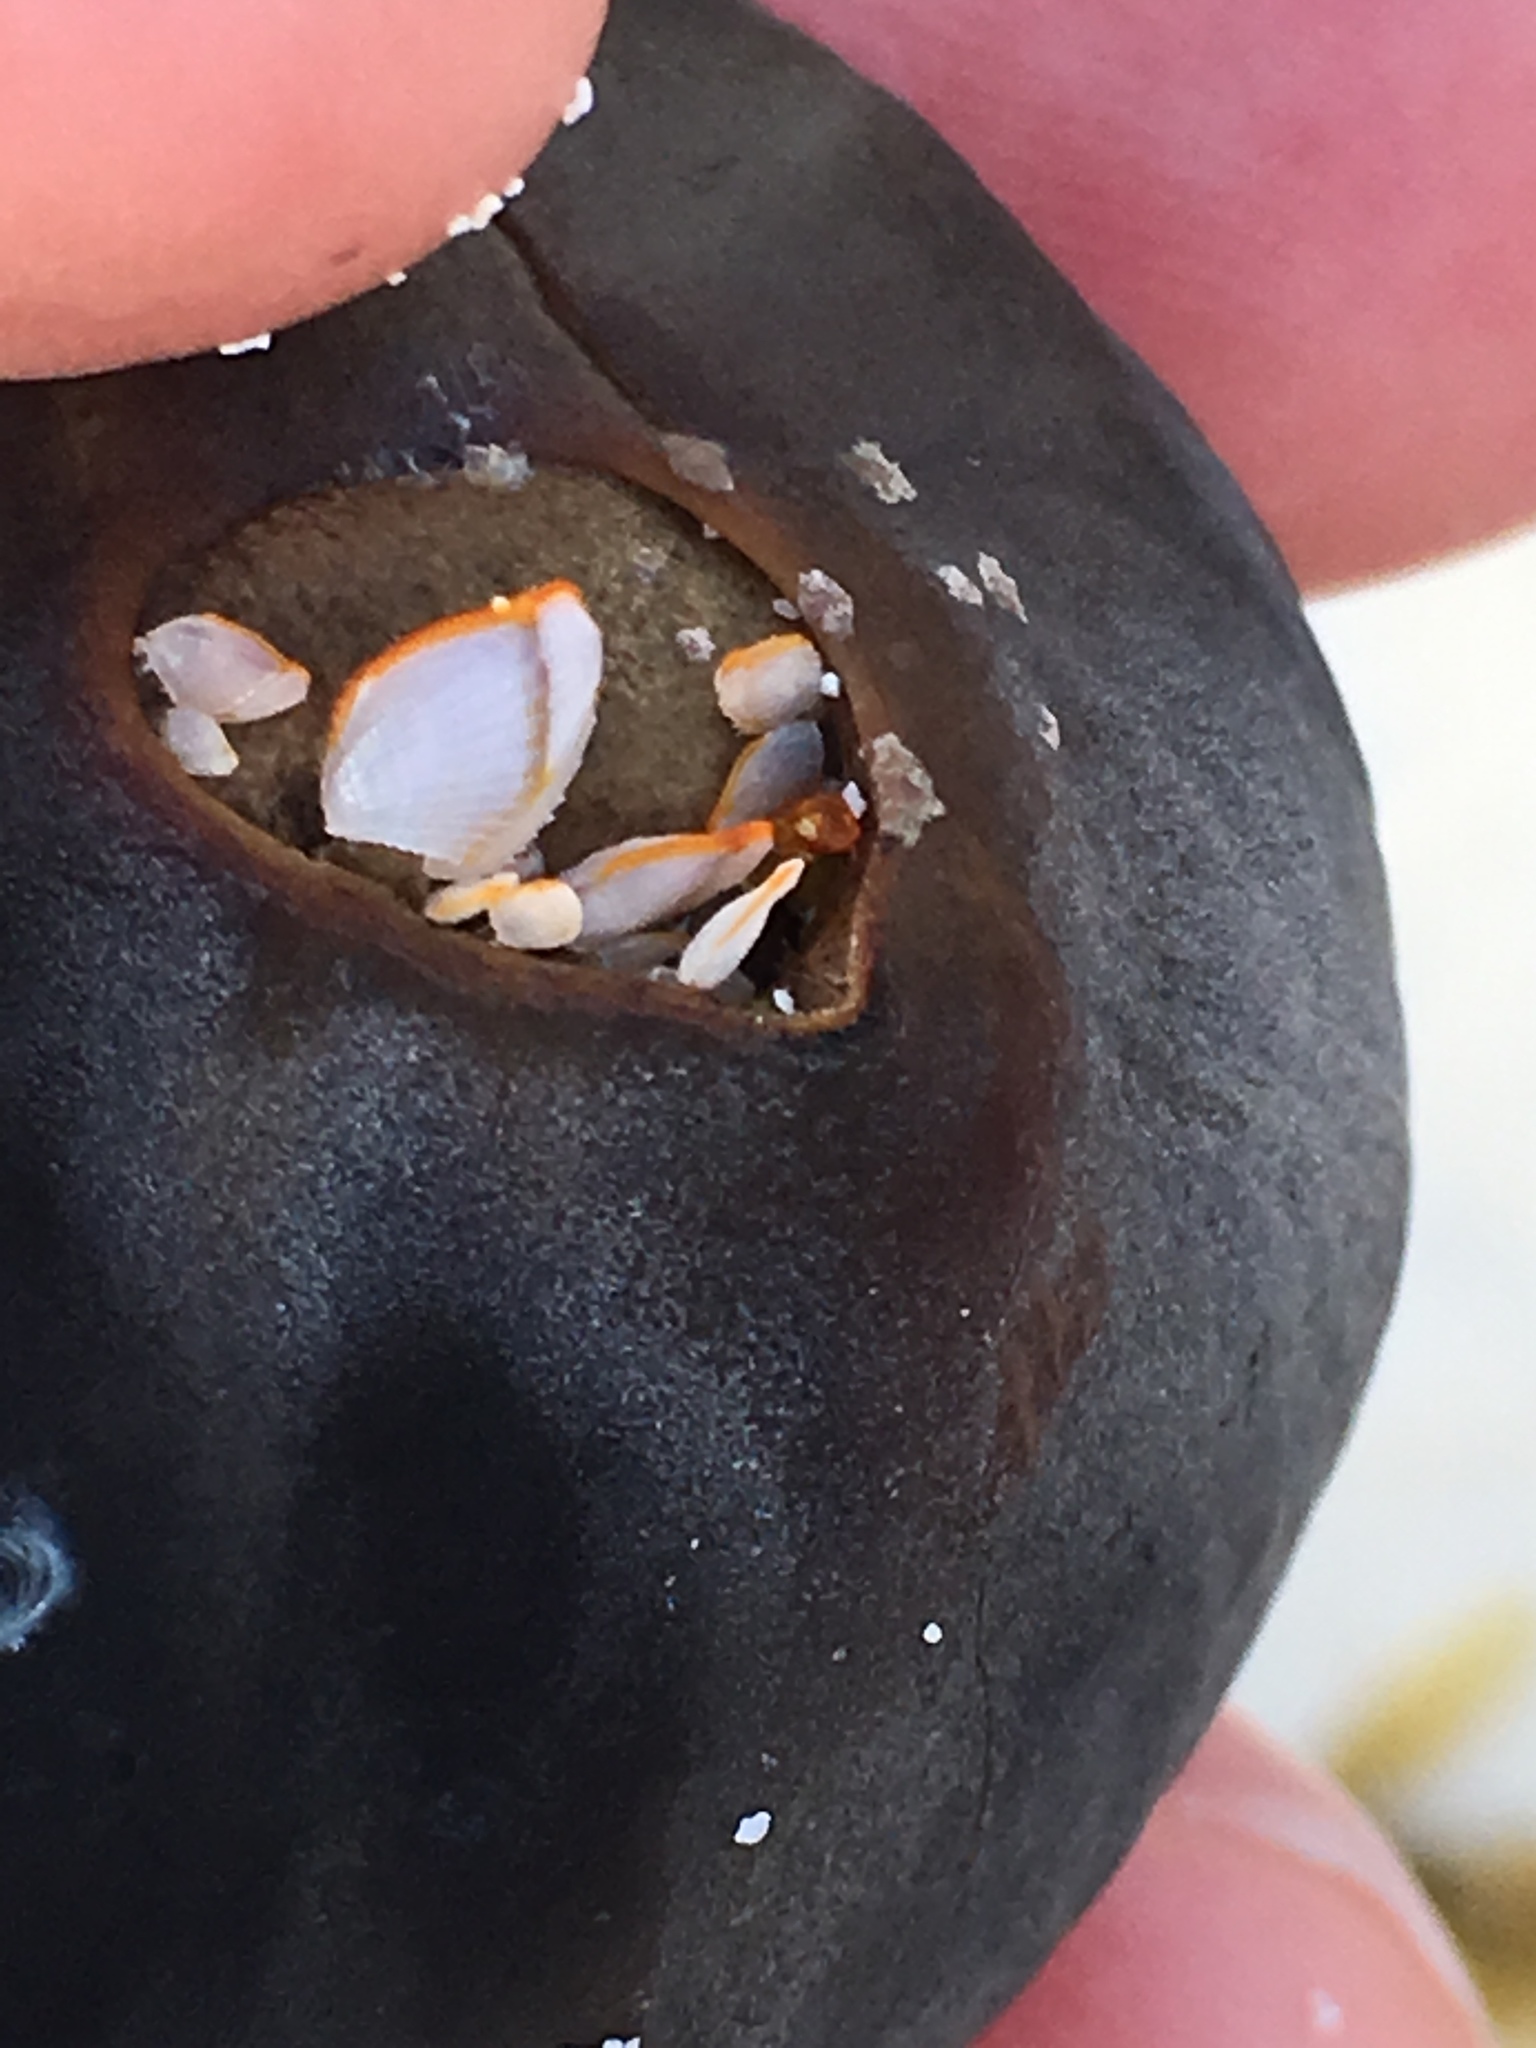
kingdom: Animalia
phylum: Arthropoda
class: Maxillopoda
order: Pedunculata
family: Lepadidae
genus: Lepas
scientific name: Lepas anserifera
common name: Goose barnacle
